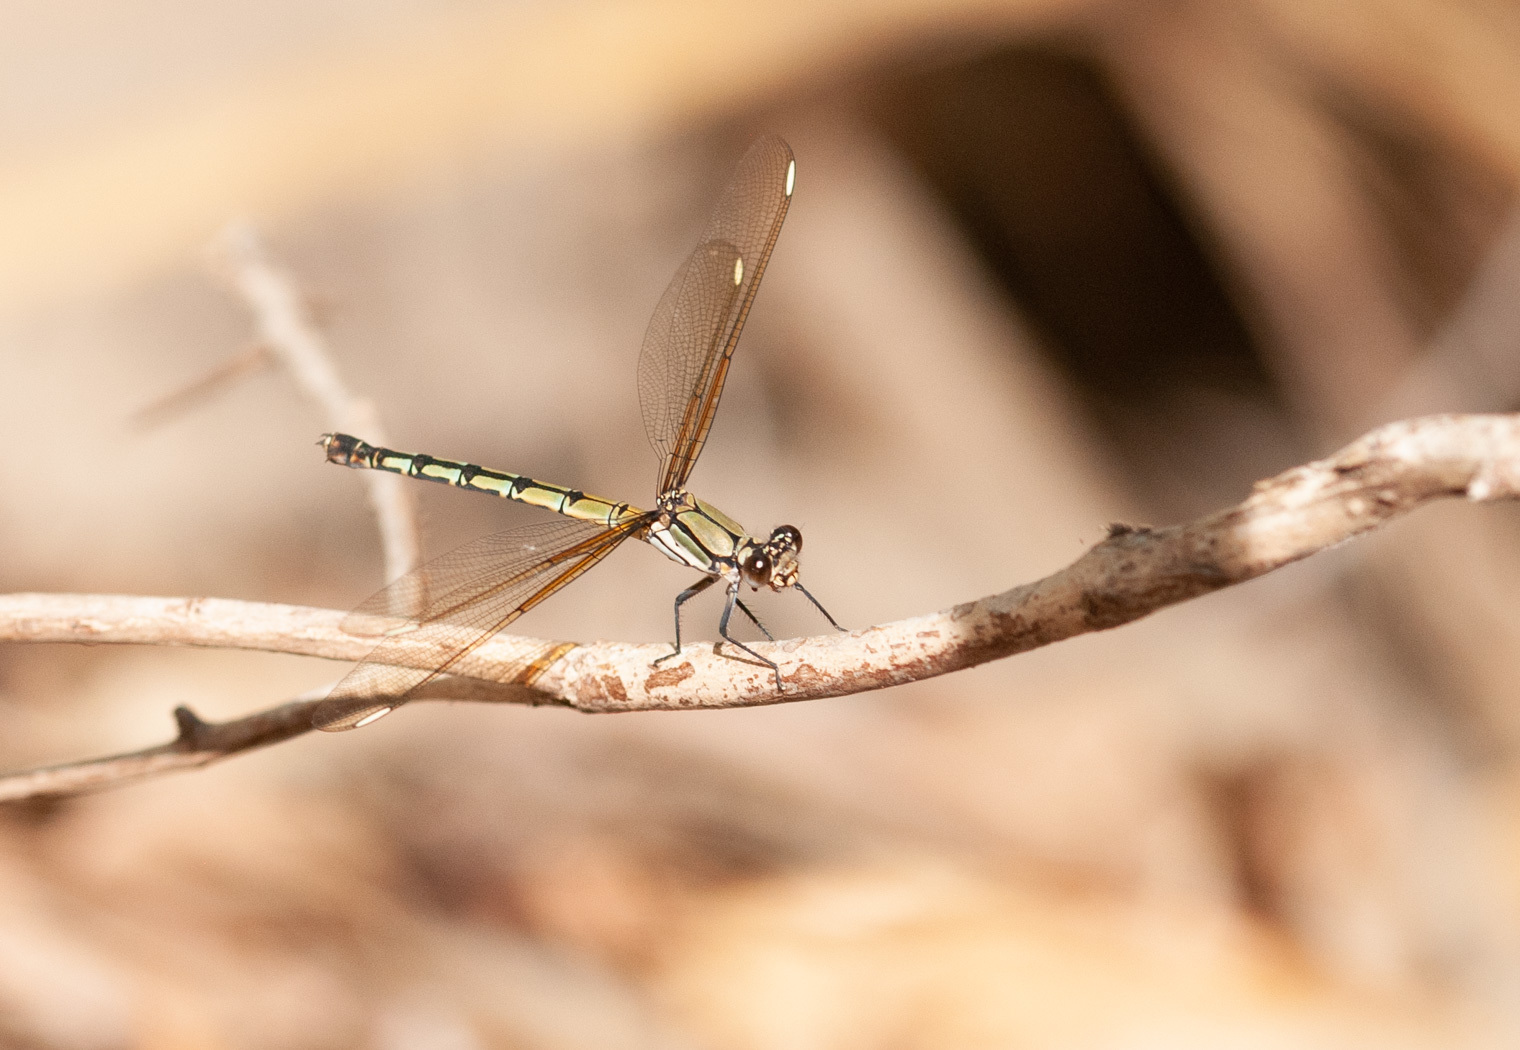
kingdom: Animalia
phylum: Arthropoda
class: Insecta
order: Odonata
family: Lestoideidae
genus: Diphlebia
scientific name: Diphlebia nymphoides
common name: Arrowhead rockmaster
